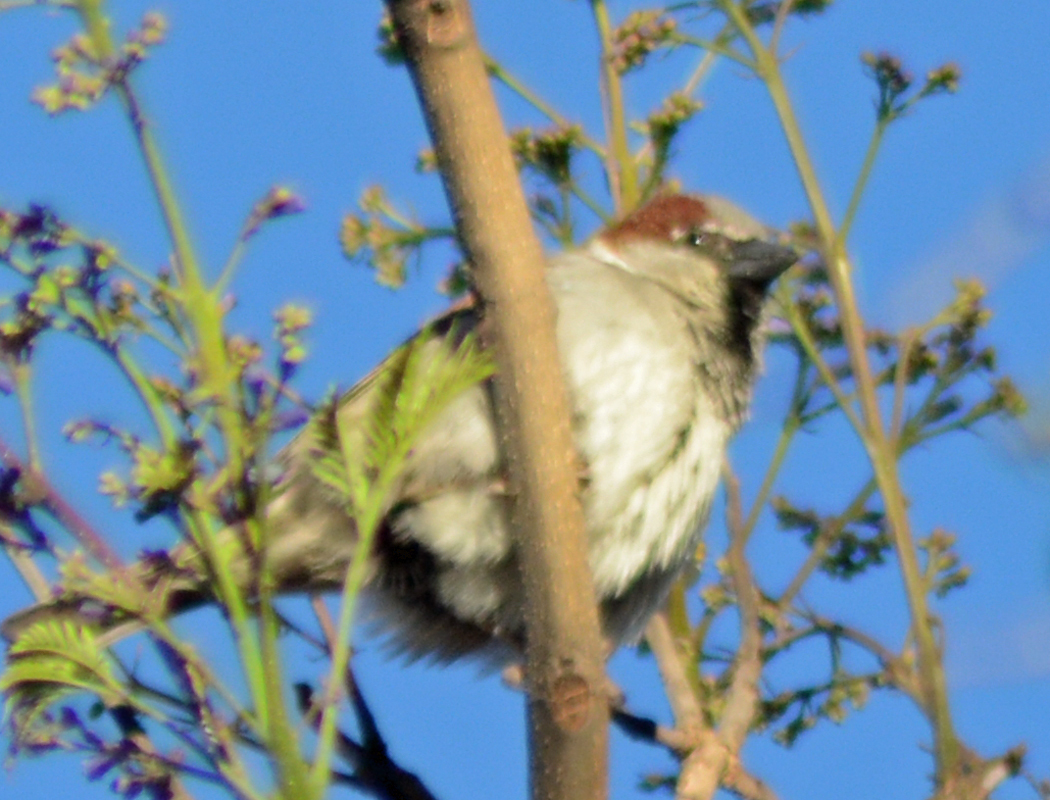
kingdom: Animalia
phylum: Chordata
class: Aves
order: Passeriformes
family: Passeridae
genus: Passer
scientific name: Passer domesticus
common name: House sparrow
